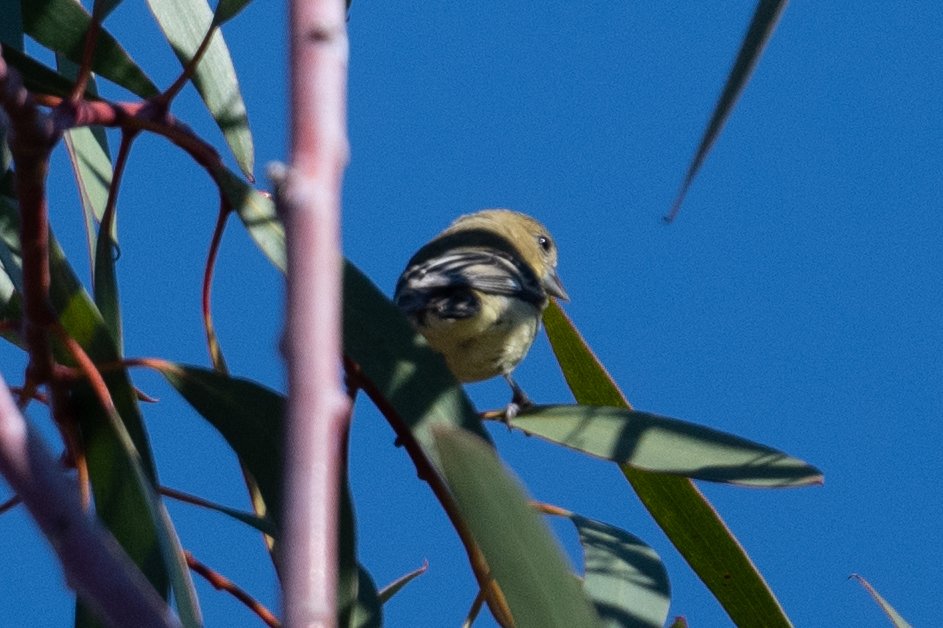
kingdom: Animalia
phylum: Chordata
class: Aves
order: Passeriformes
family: Fringillidae
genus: Spinus
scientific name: Spinus psaltria
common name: Lesser goldfinch
